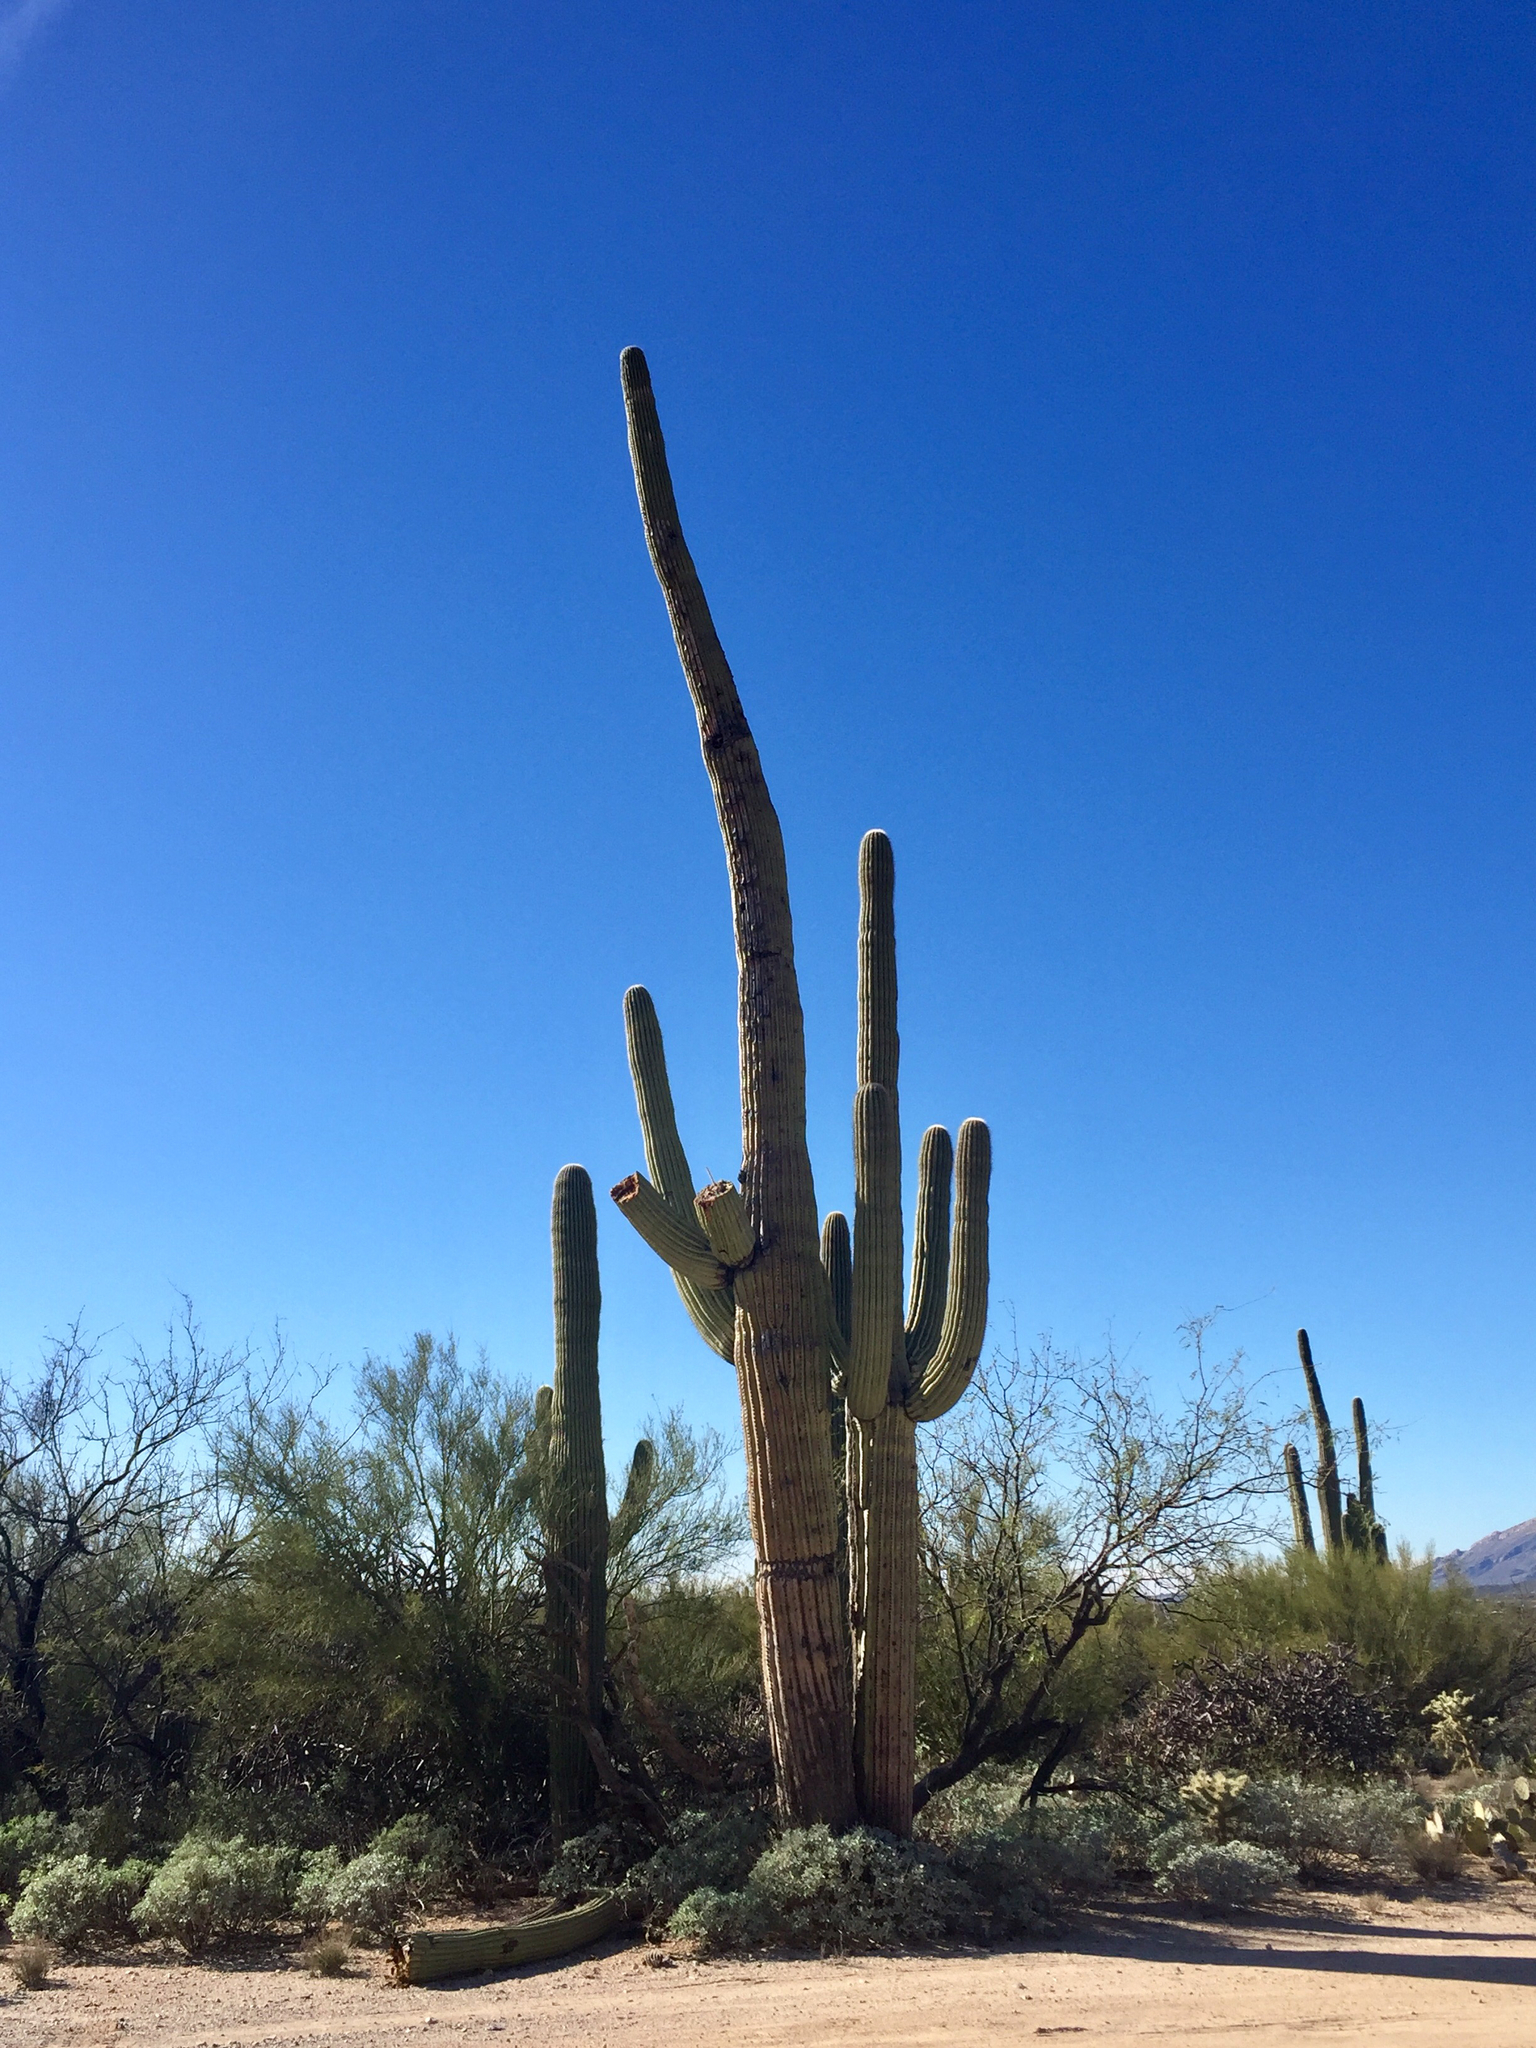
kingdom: Plantae
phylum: Tracheophyta
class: Magnoliopsida
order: Caryophyllales
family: Cactaceae
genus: Carnegiea
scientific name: Carnegiea gigantea
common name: Saguaro
